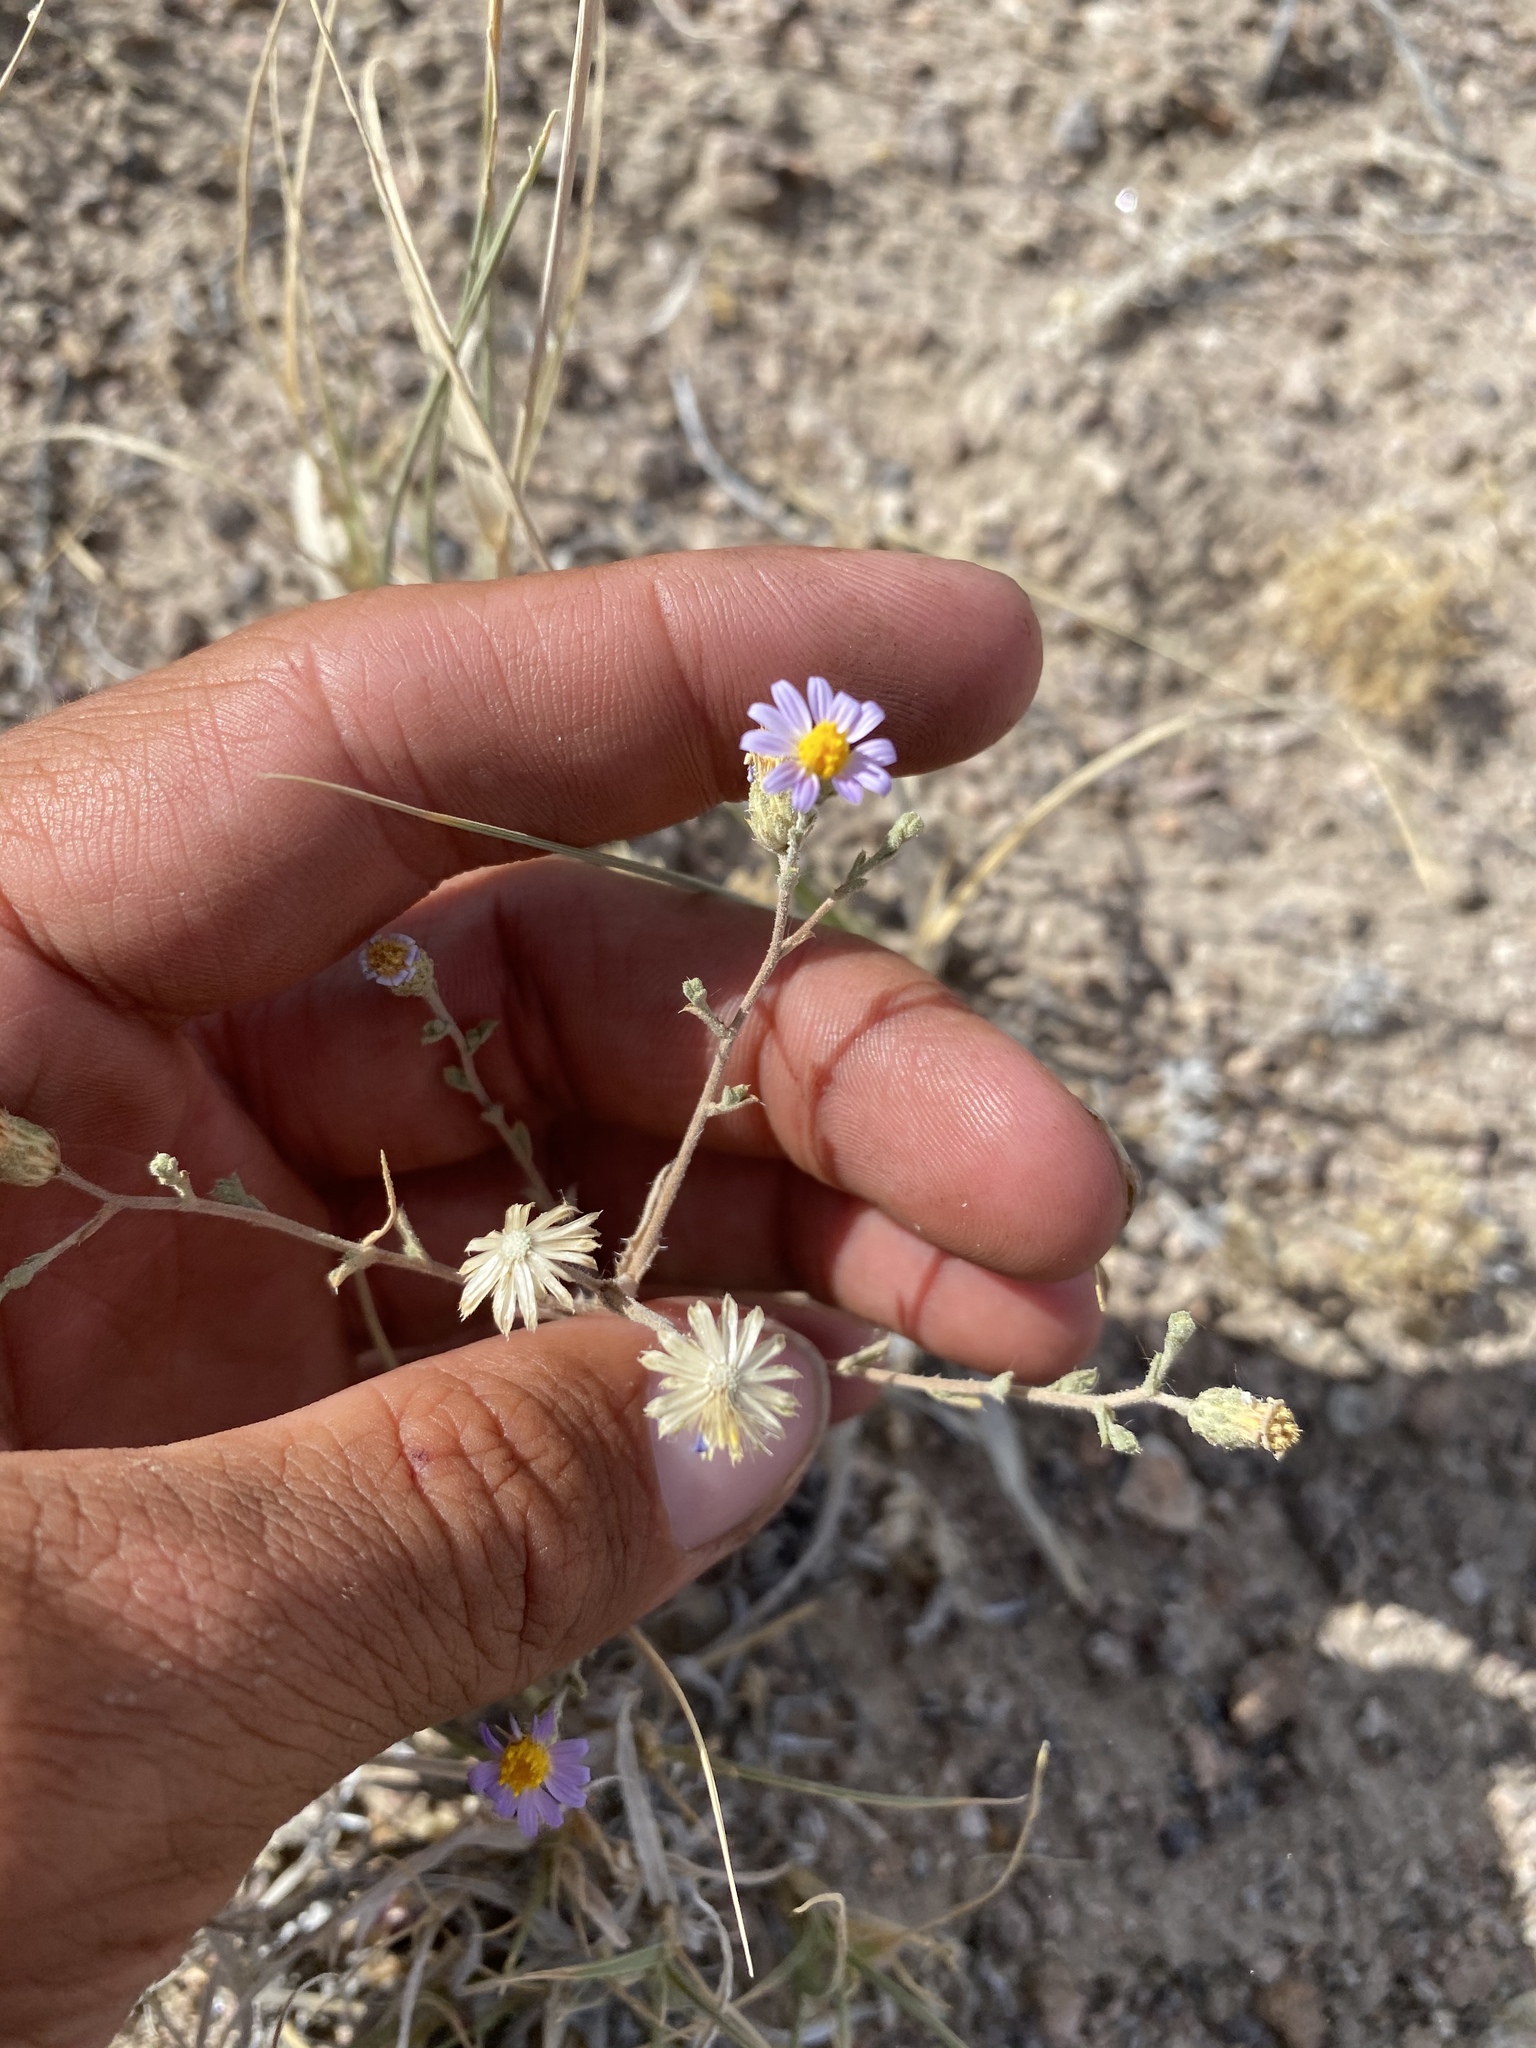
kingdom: Plantae
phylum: Tracheophyta
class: Magnoliopsida
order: Asterales
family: Asteraceae
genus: Dieteria
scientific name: Dieteria canescens
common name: Hoary-aster
